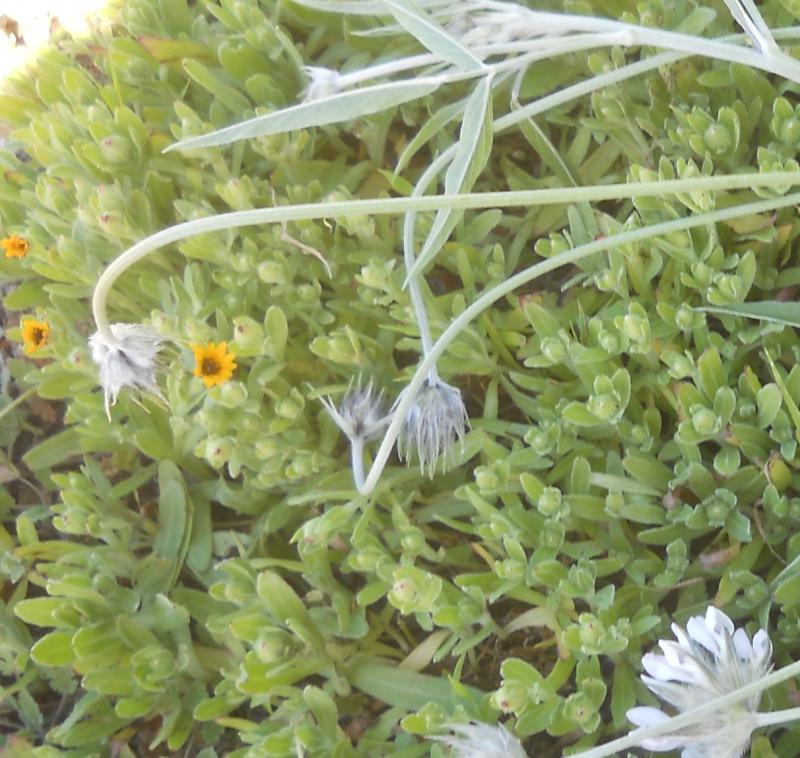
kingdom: Plantae
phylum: Tracheophyta
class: Magnoliopsida
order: Asterales
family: Asteraceae
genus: Calendula
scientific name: Calendula arvensis
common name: Field marigold
